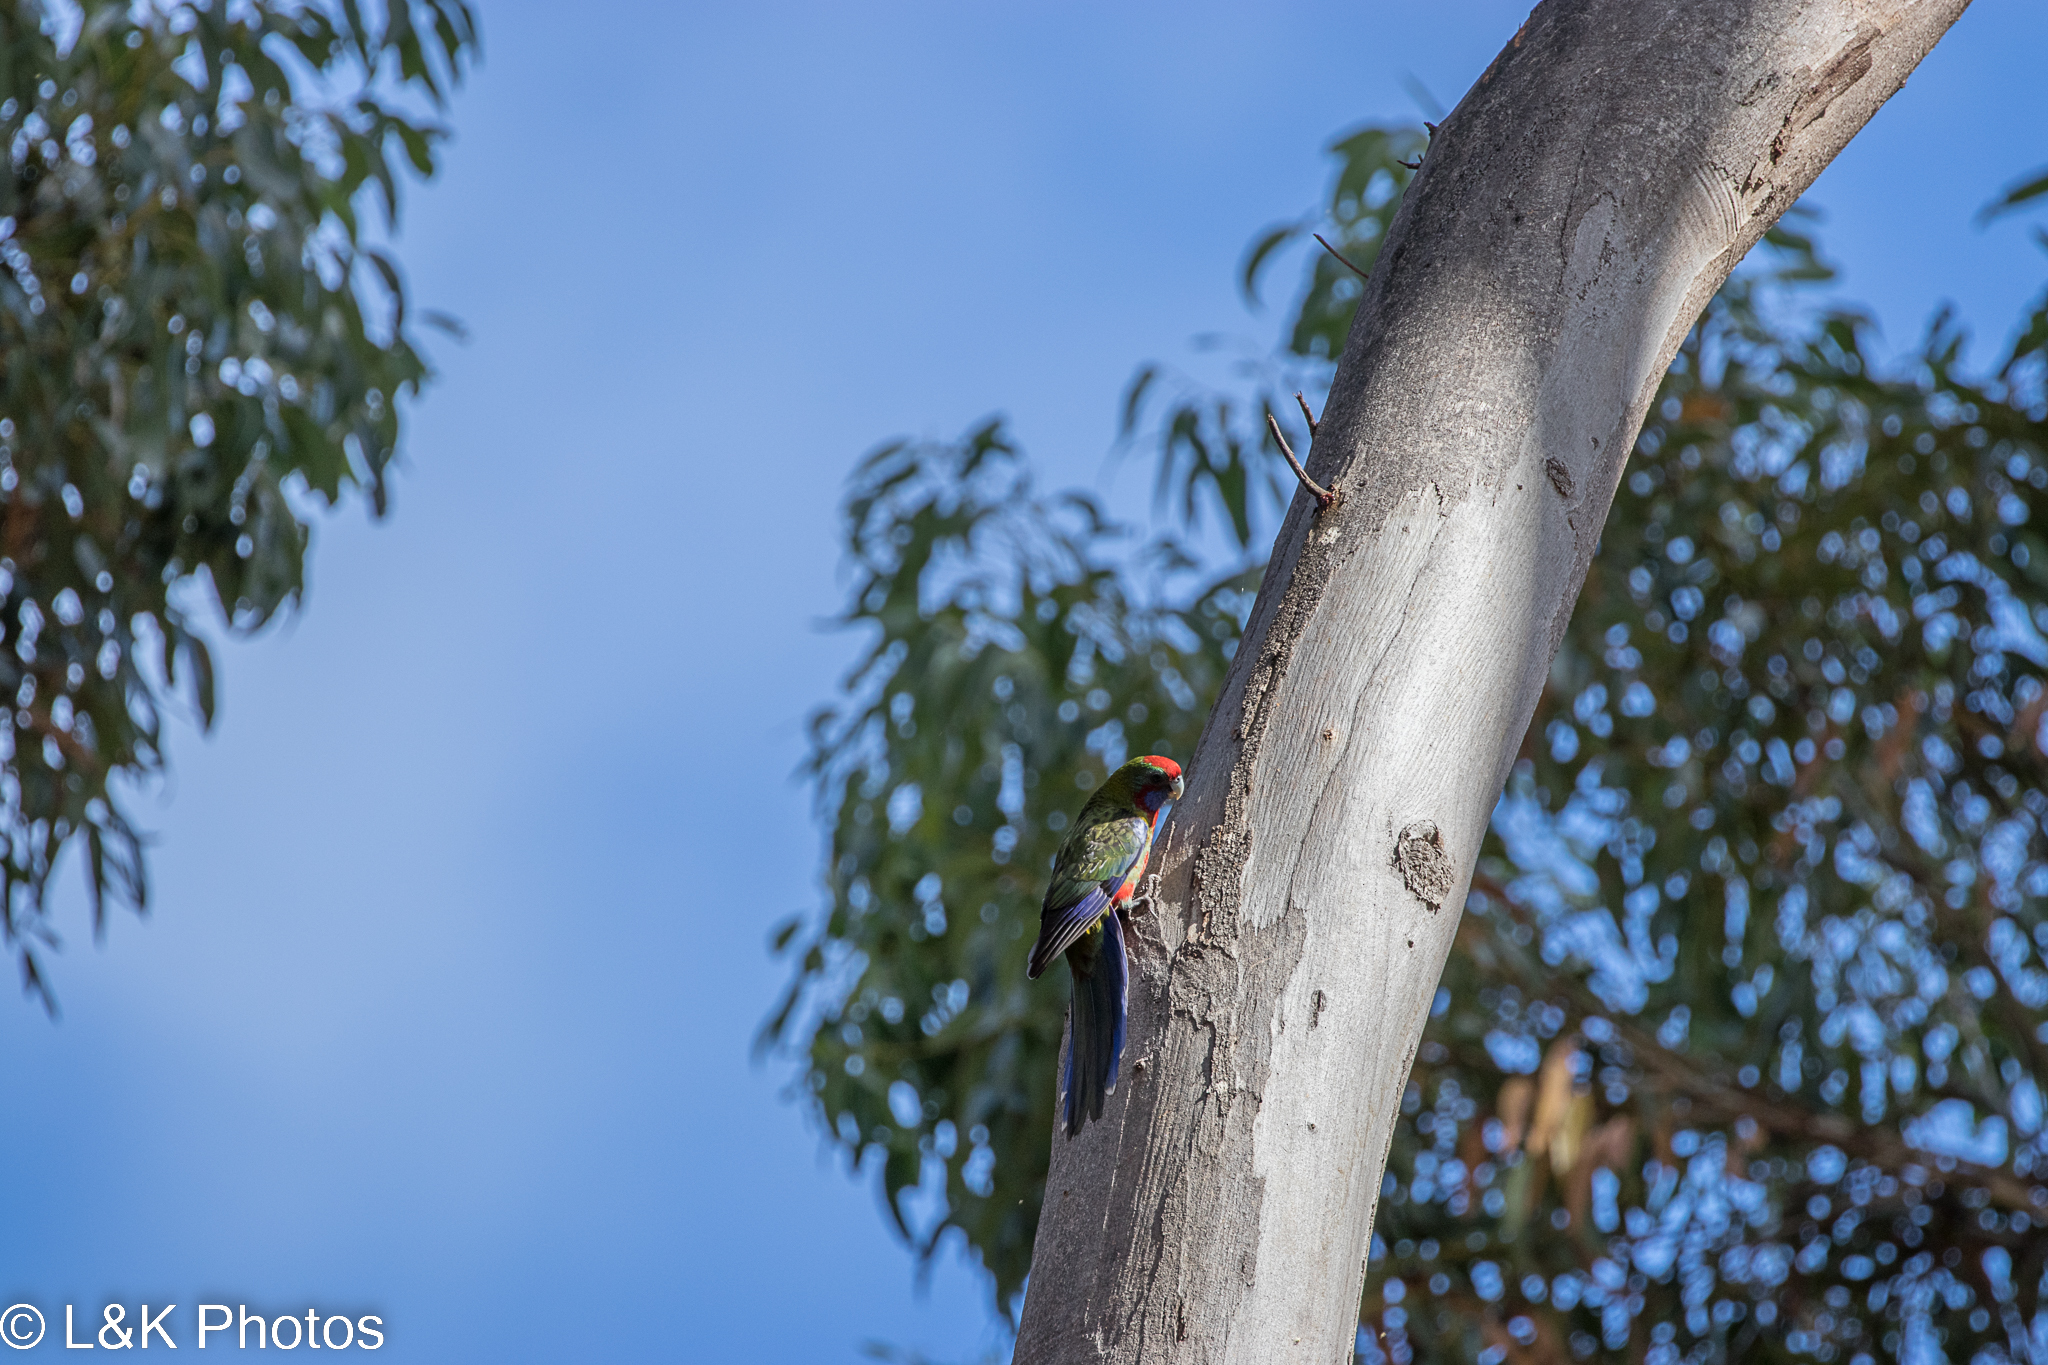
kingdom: Animalia
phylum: Chordata
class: Aves
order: Psittaciformes
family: Psittacidae
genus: Platycercus
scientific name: Platycercus elegans
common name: Crimson rosella
